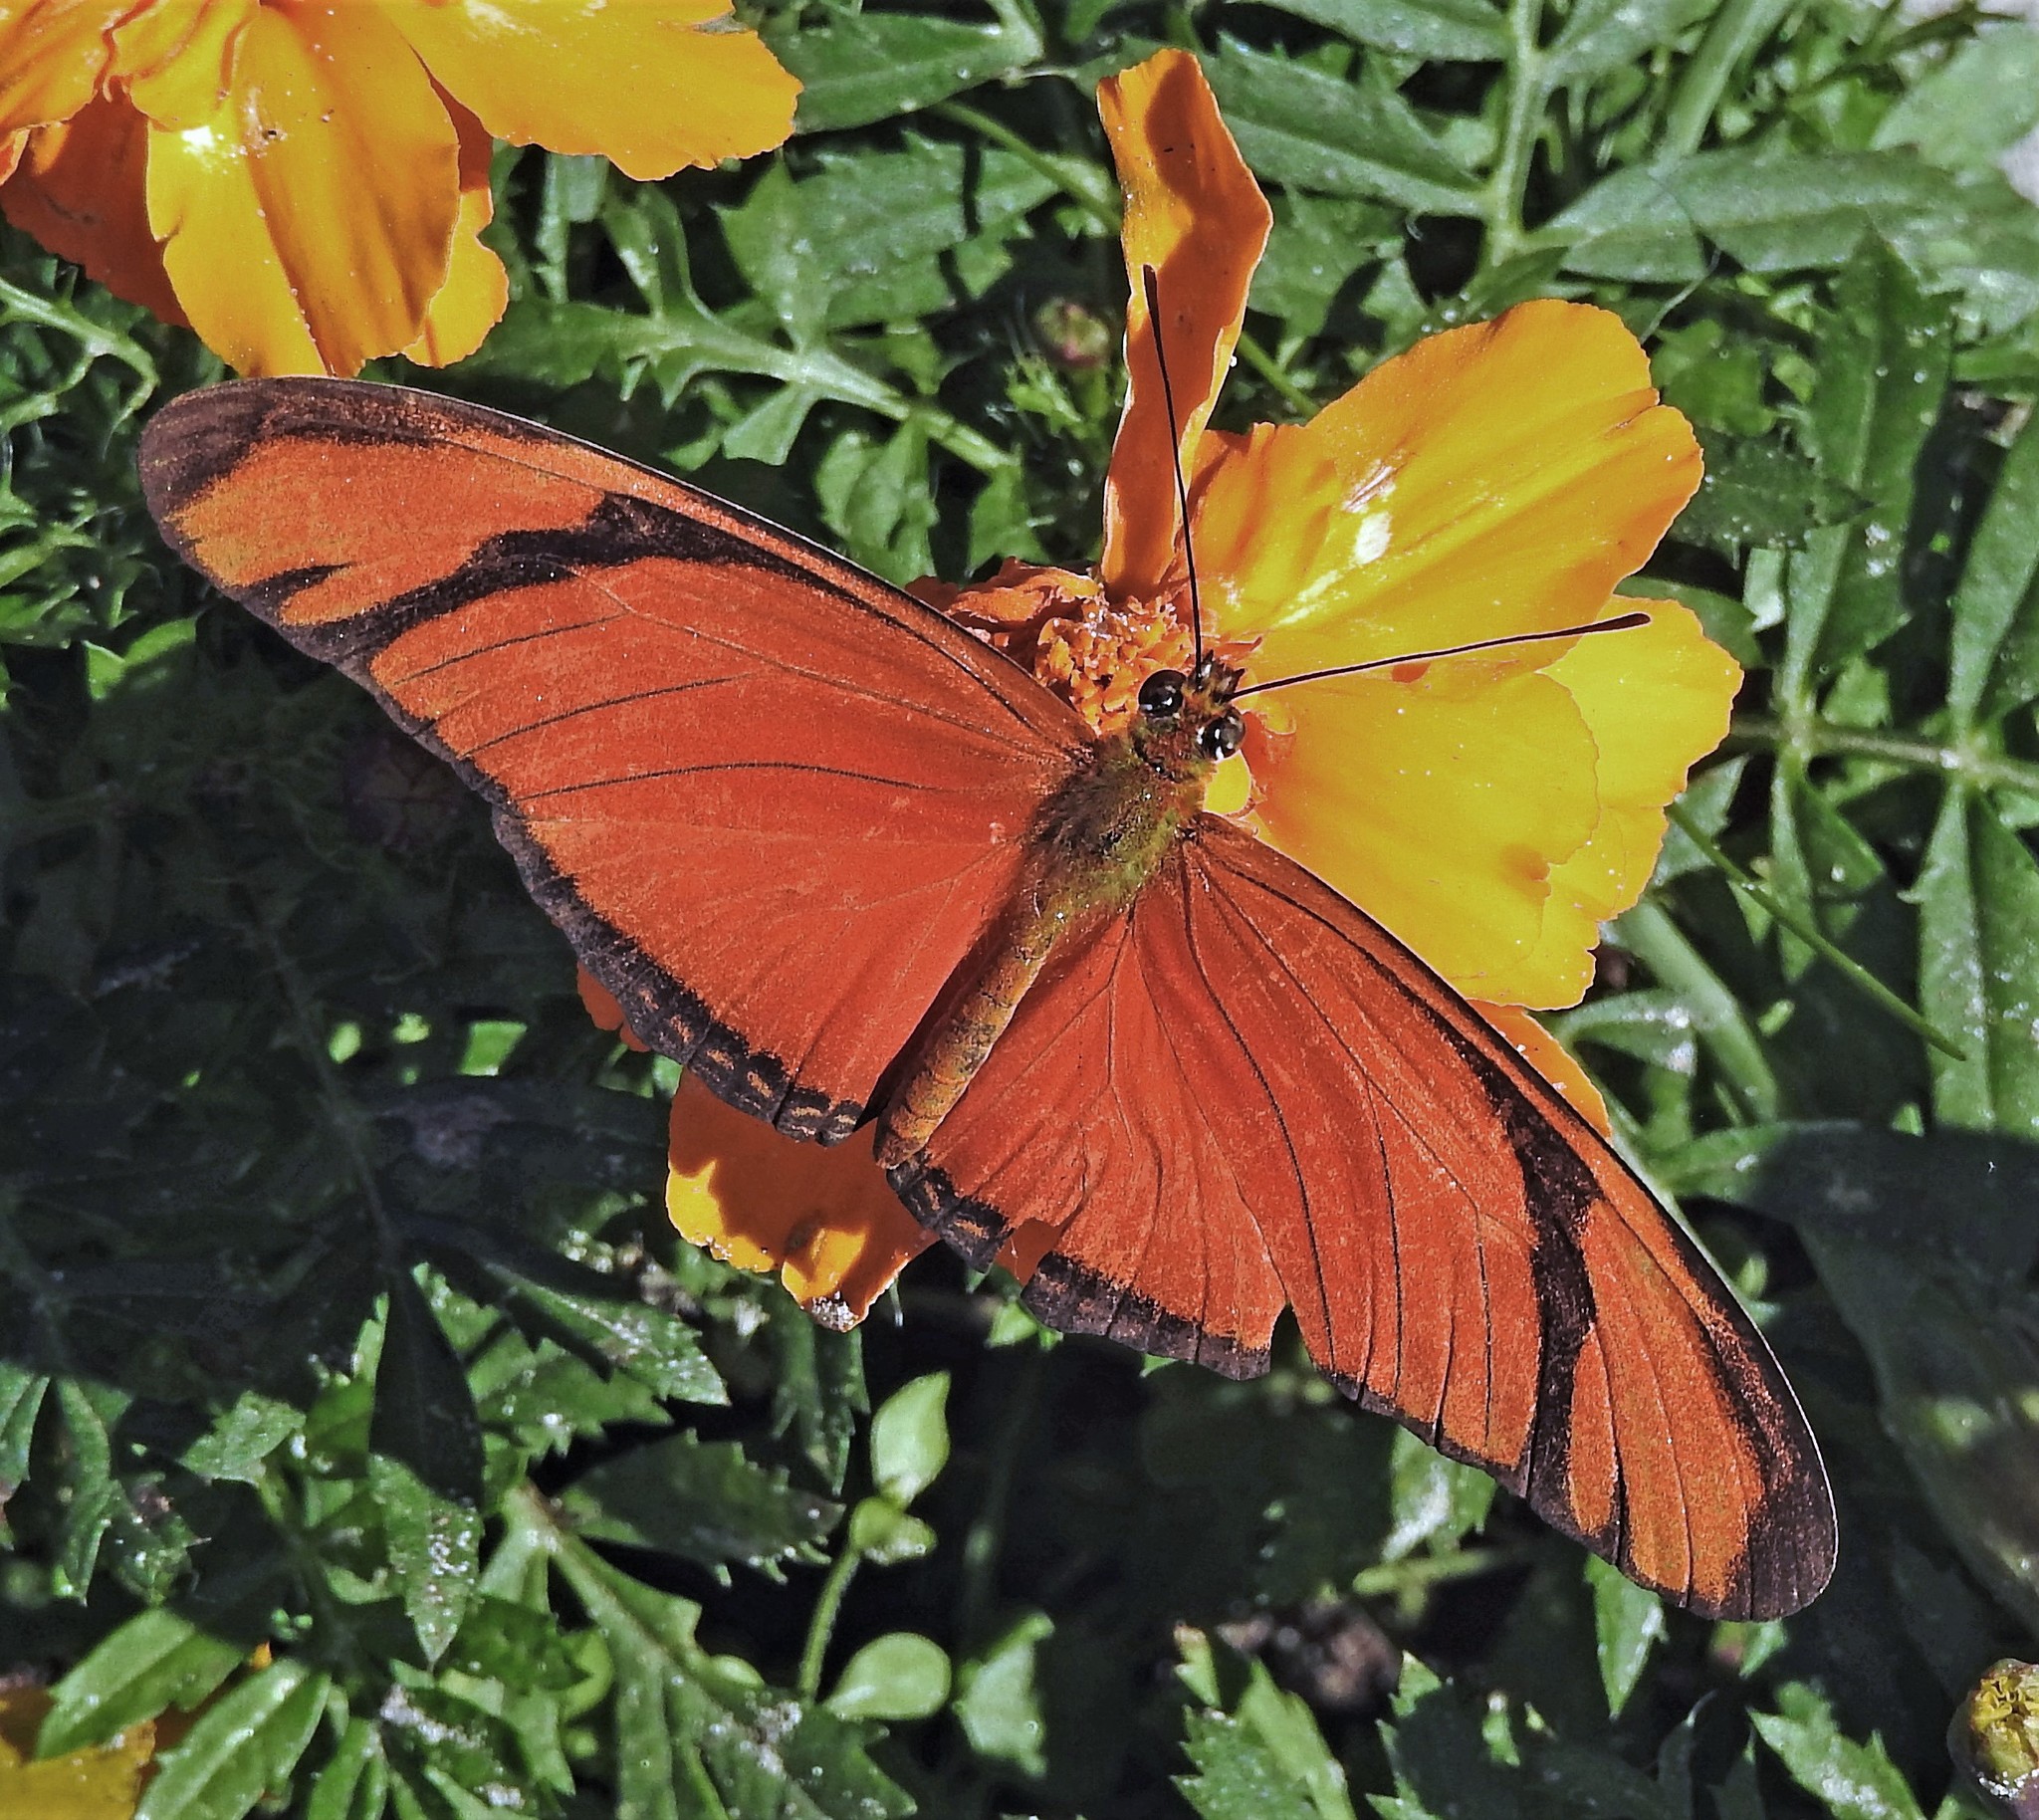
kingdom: Animalia
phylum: Arthropoda
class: Insecta
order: Lepidoptera
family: Nymphalidae
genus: Dryas
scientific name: Dryas iulia
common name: Flambeau
